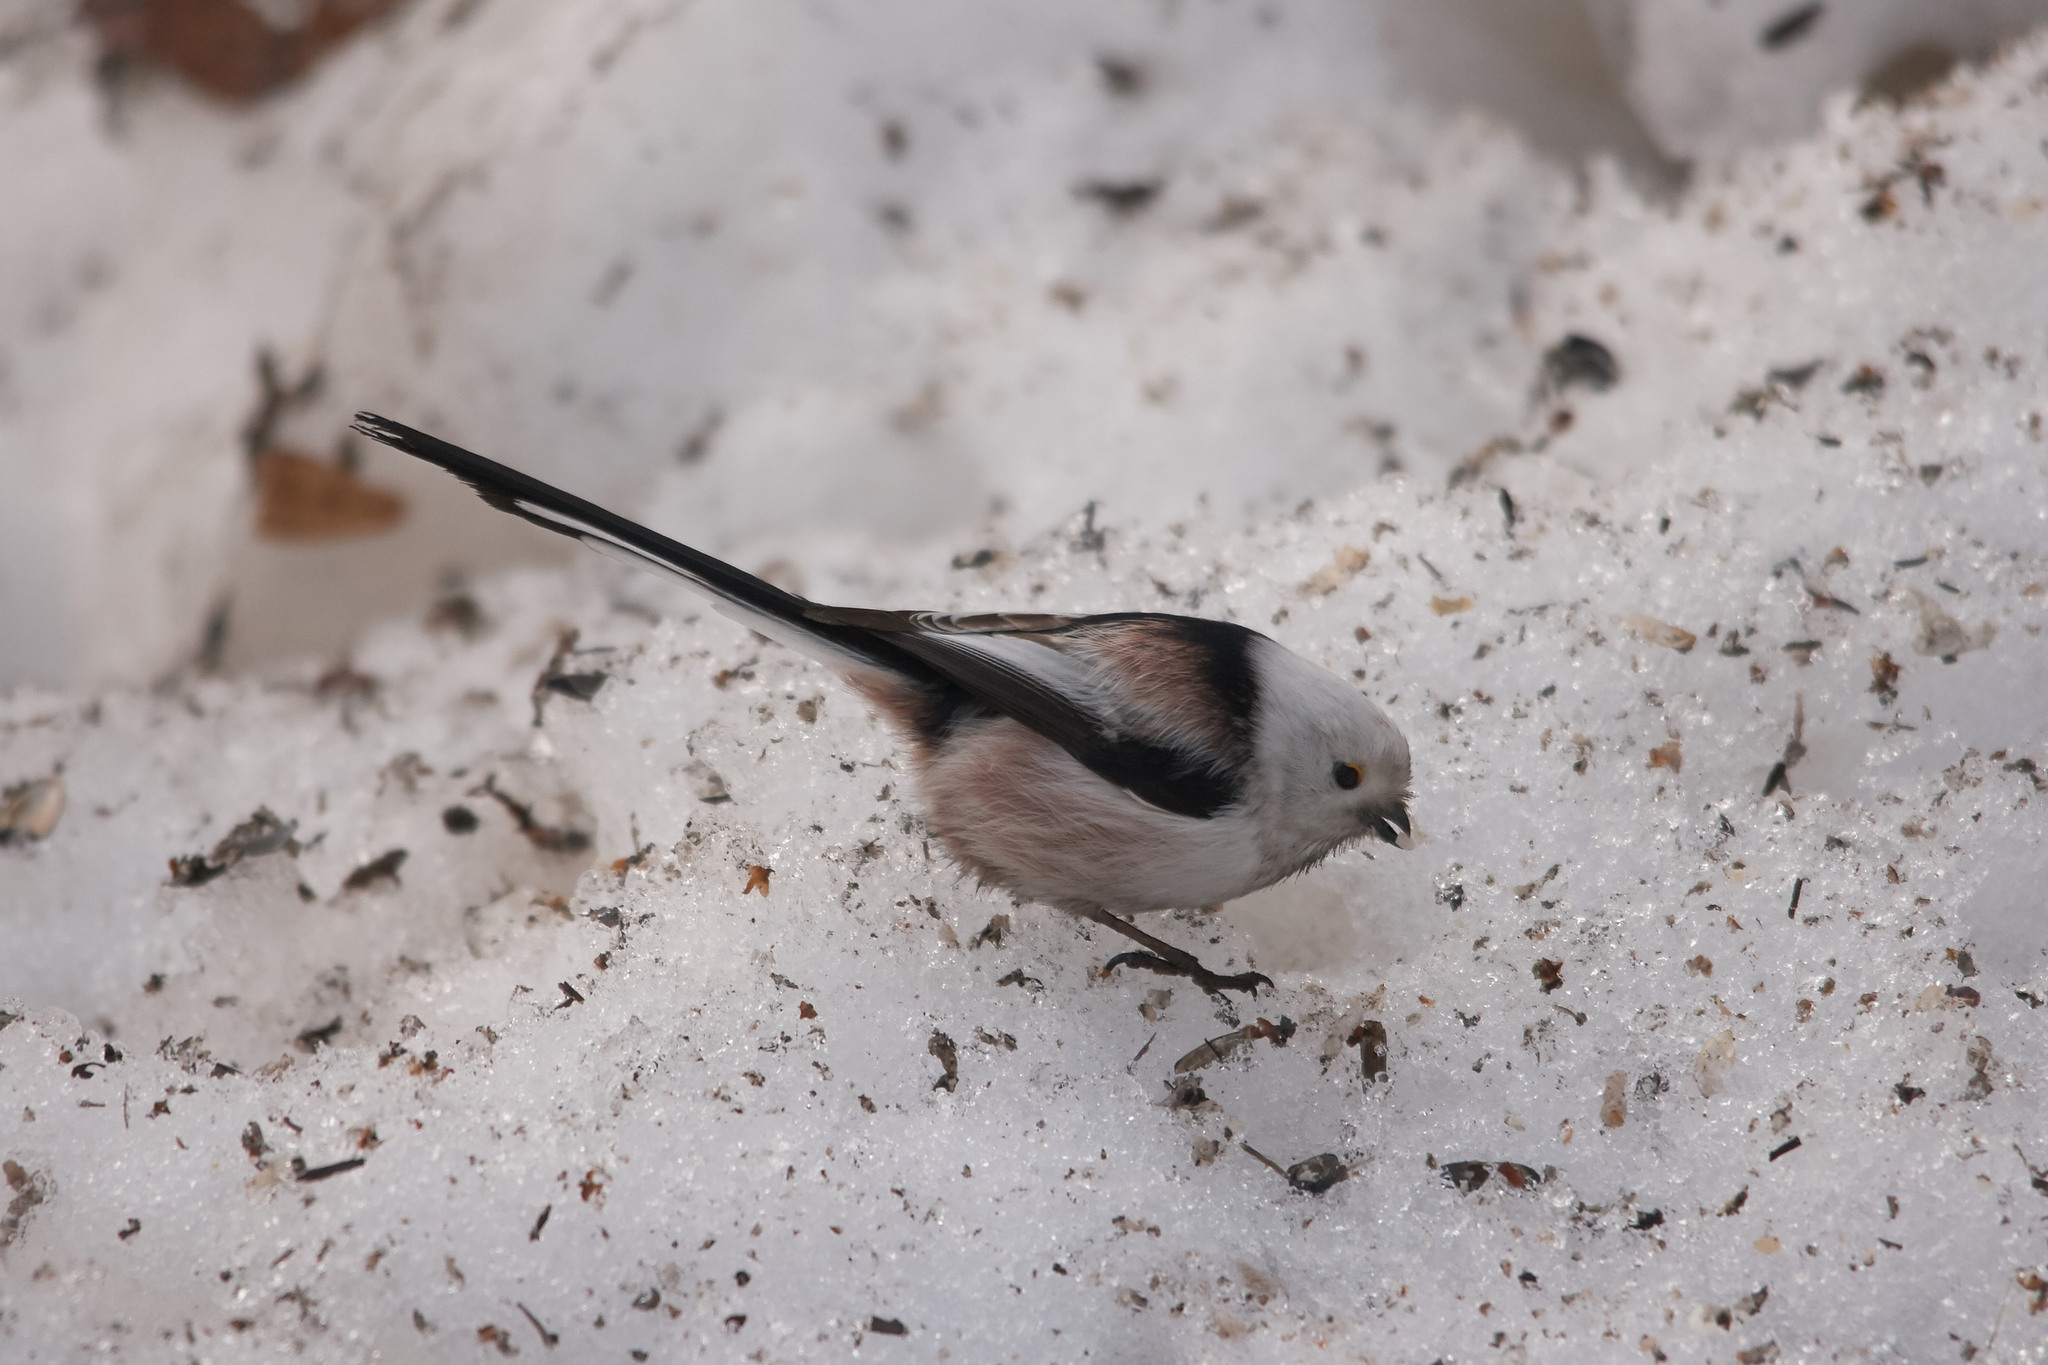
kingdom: Animalia
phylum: Chordata
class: Aves
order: Passeriformes
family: Aegithalidae
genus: Aegithalos
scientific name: Aegithalos caudatus
